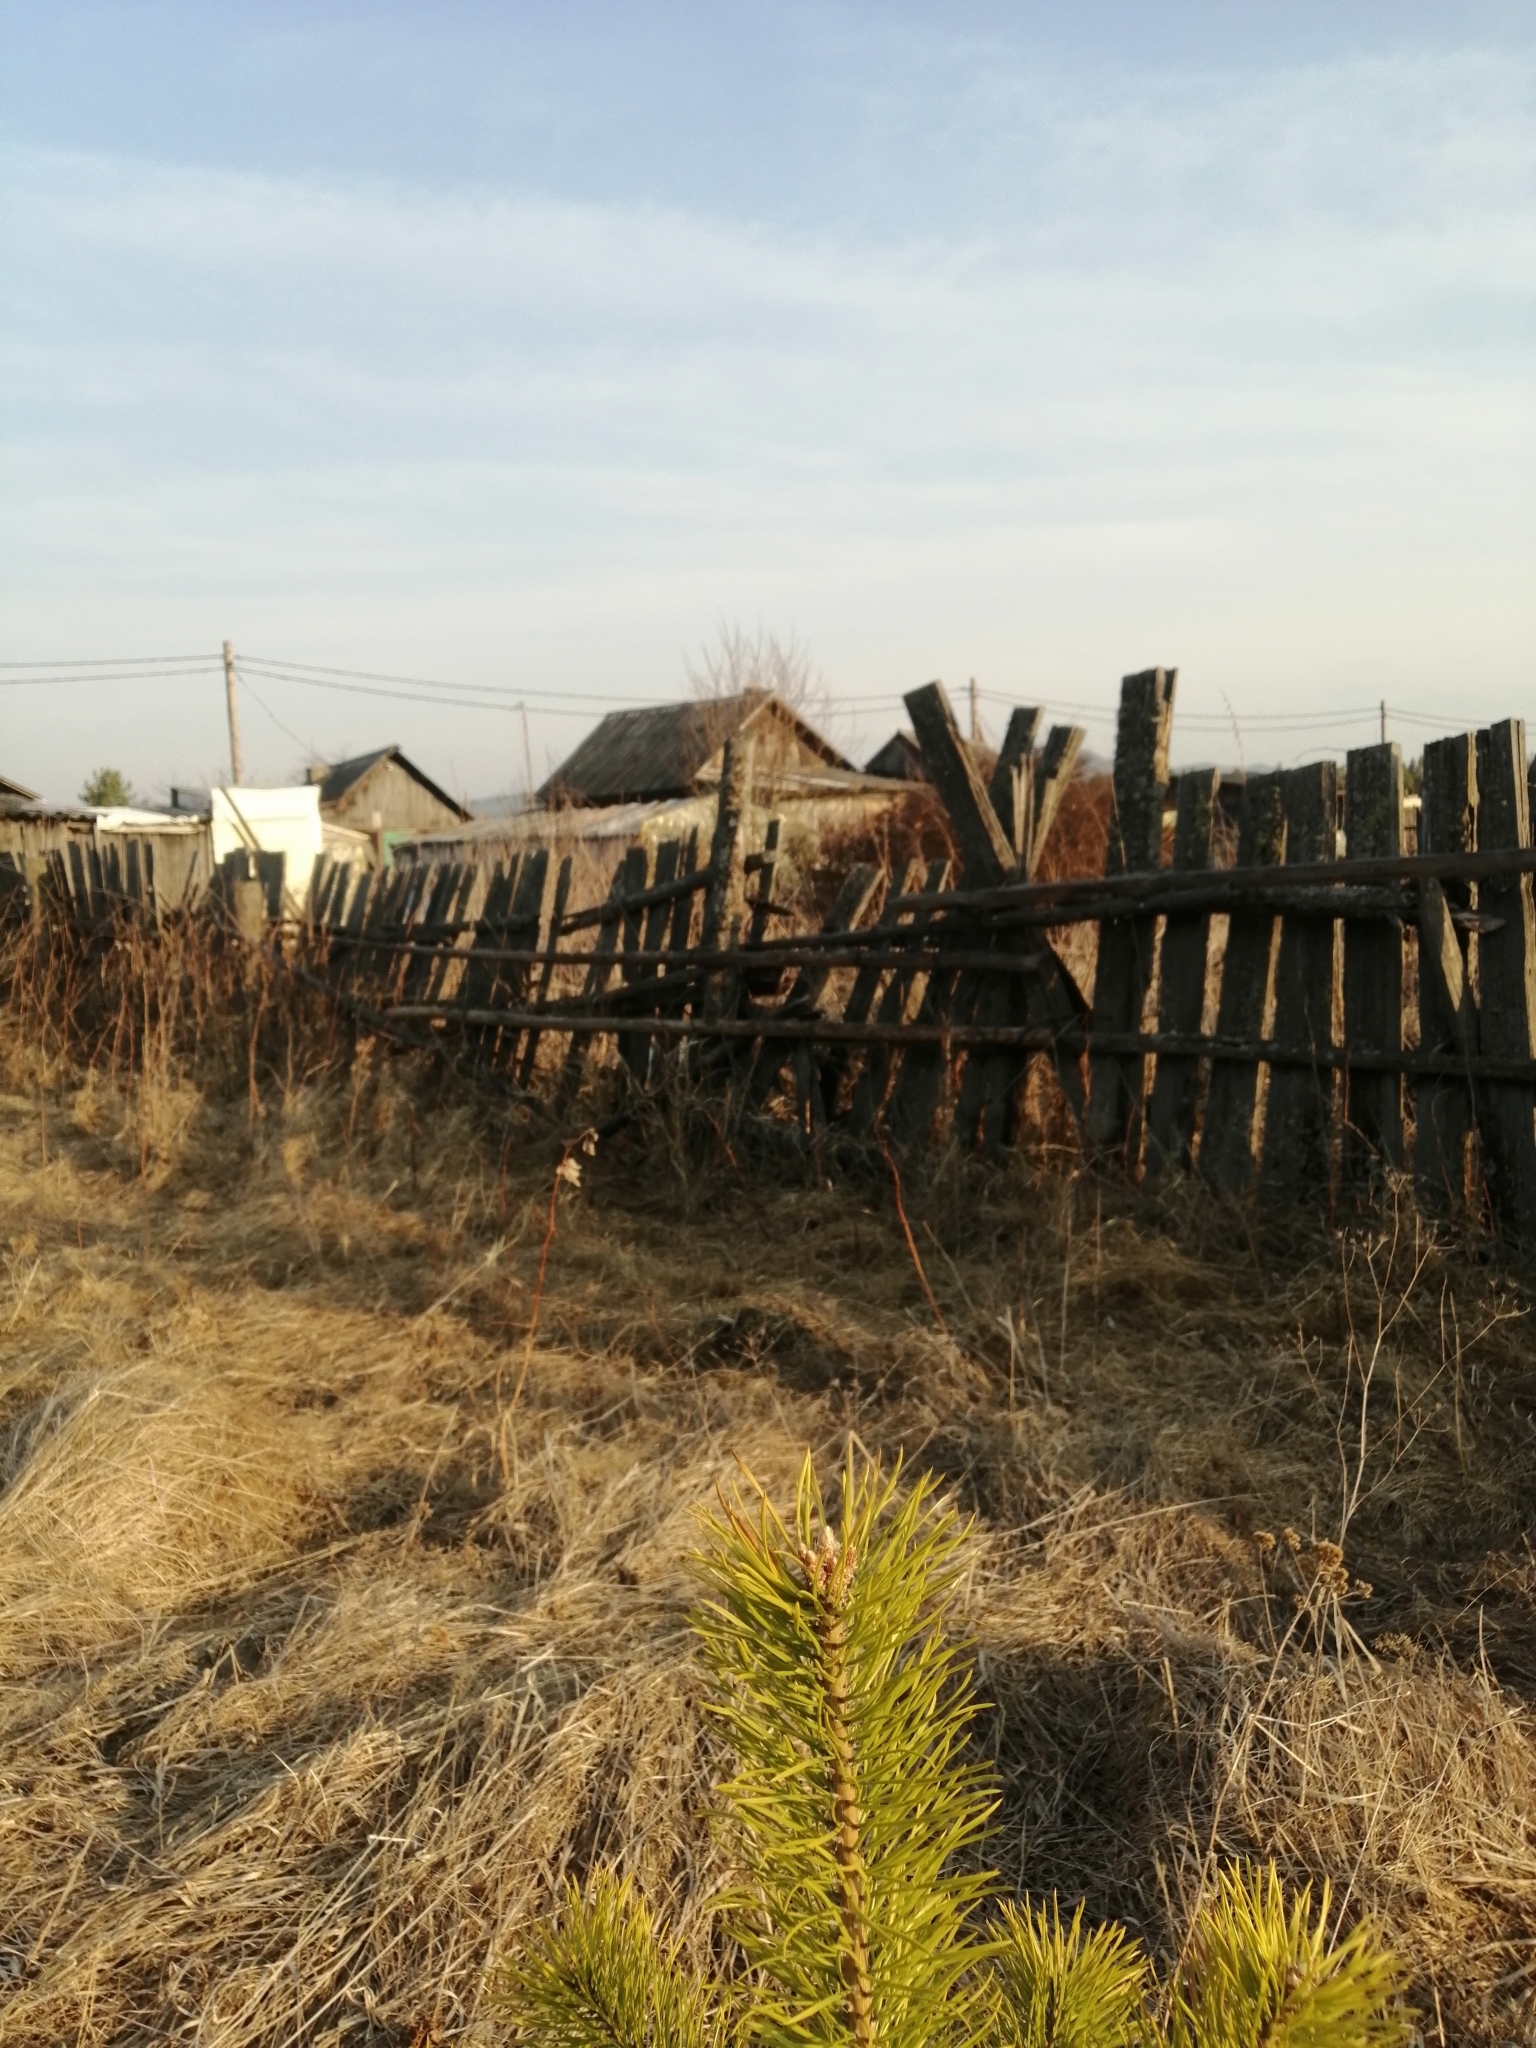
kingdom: Plantae
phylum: Tracheophyta
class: Pinopsida
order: Pinales
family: Pinaceae
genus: Pinus
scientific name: Pinus sylvestris
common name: Scots pine
